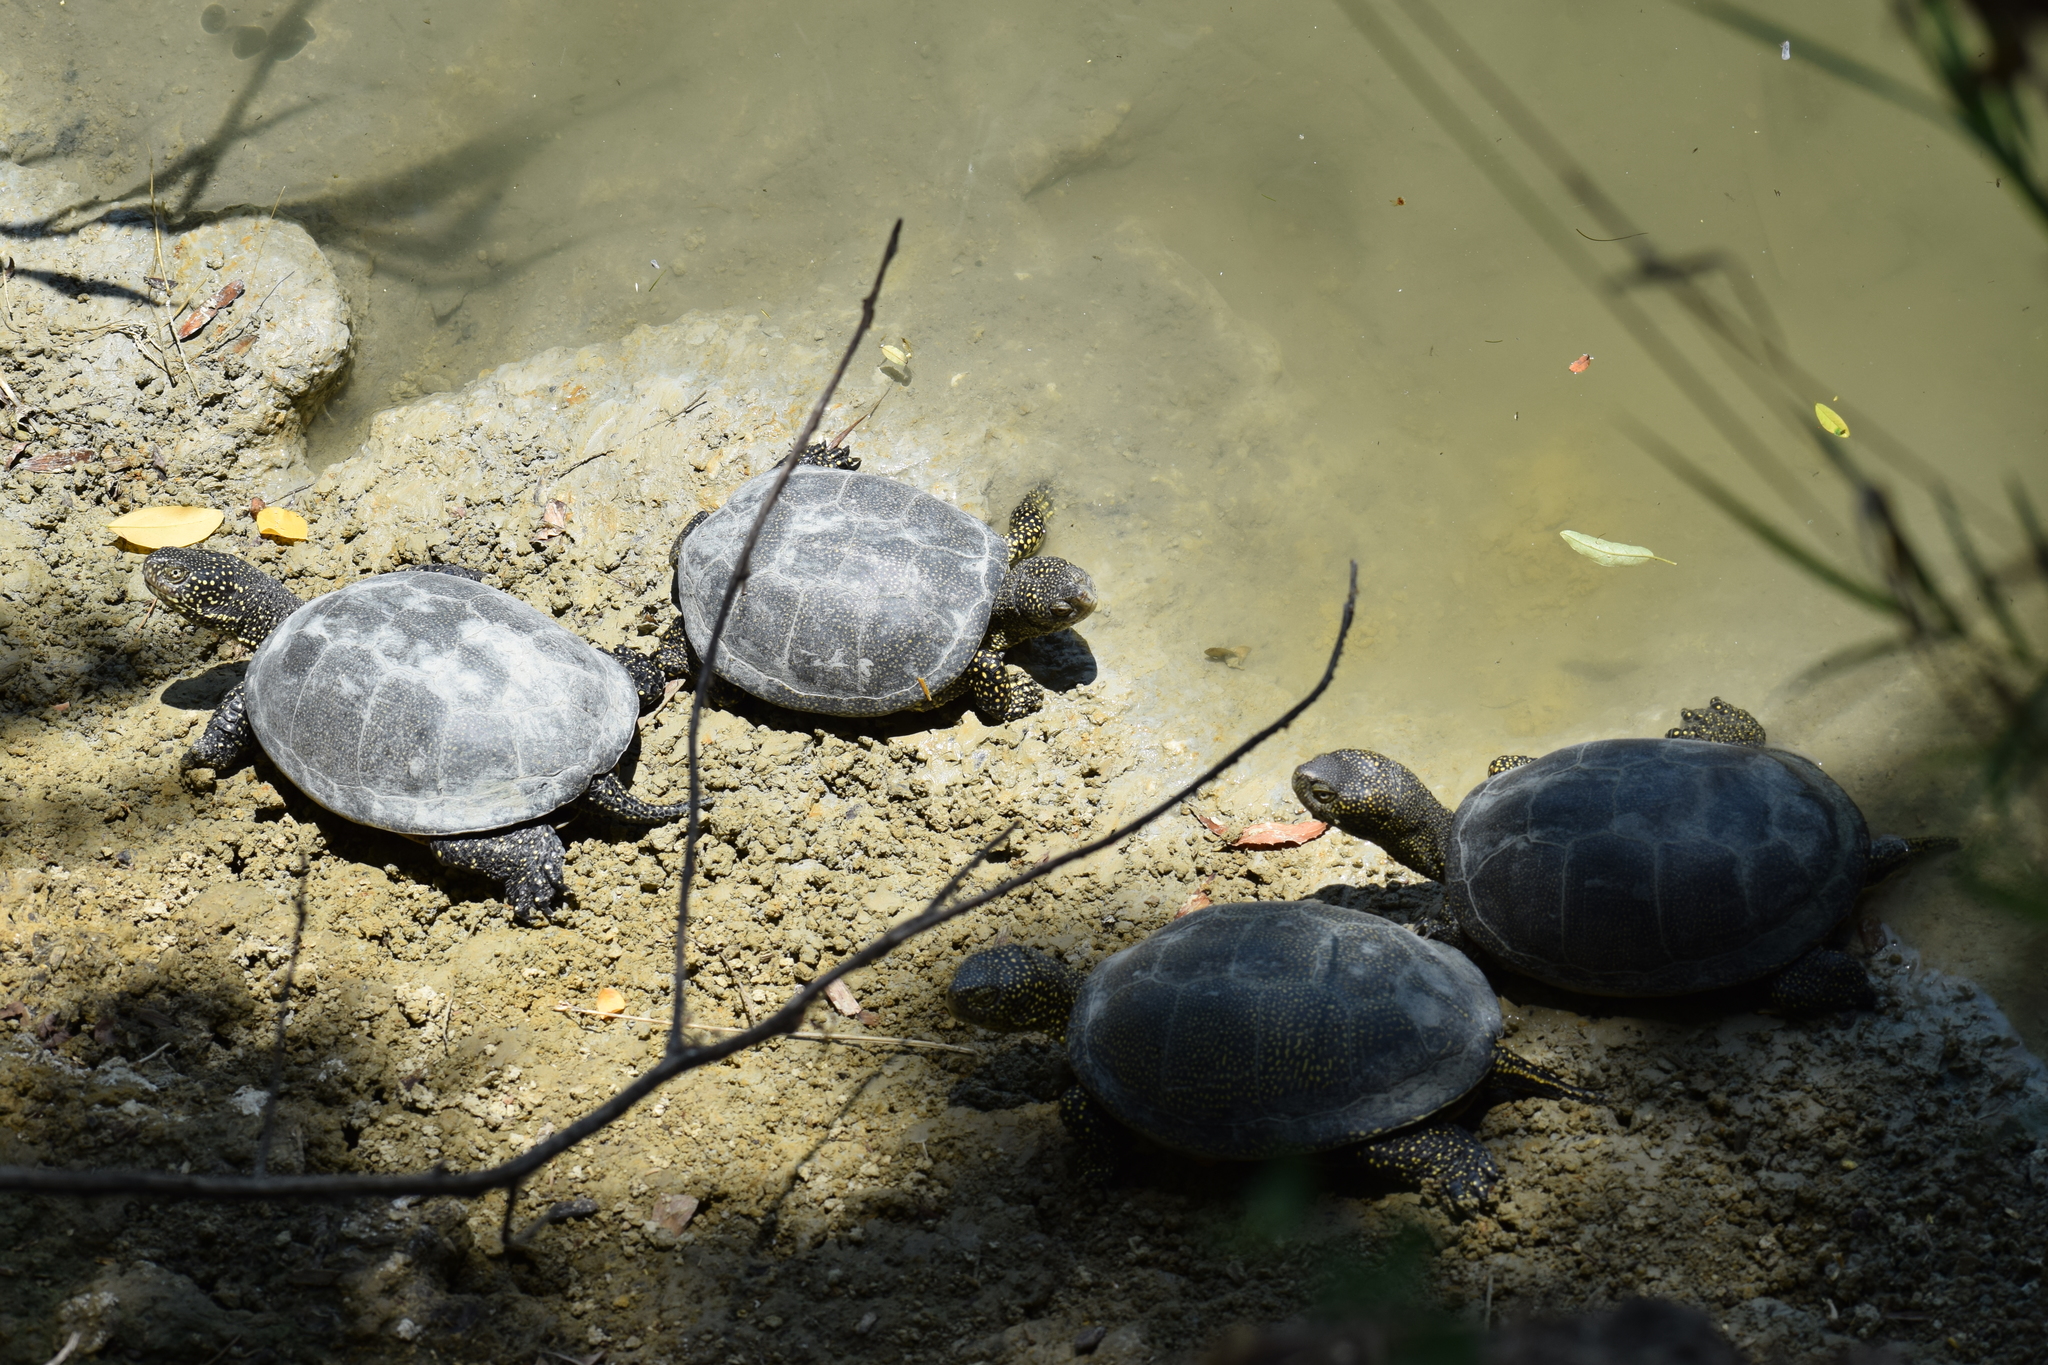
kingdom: Animalia
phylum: Chordata
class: Testudines
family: Emydidae
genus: Emys
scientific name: Emys orbicularis
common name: European pond turtle
